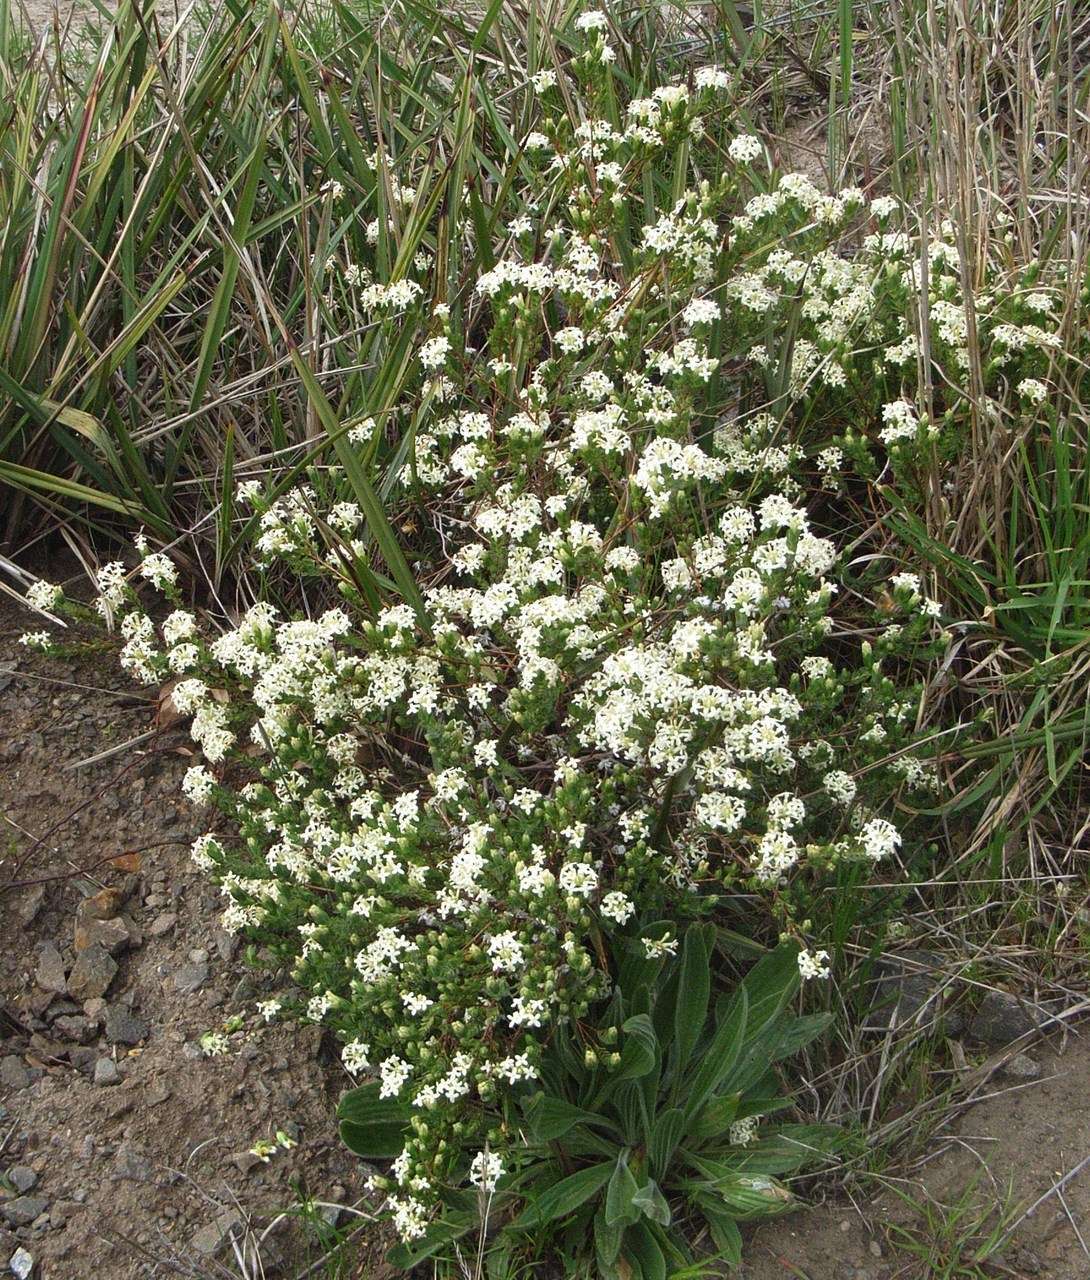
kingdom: Plantae
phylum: Tracheophyta
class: Magnoliopsida
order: Malvales
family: Thymelaeaceae
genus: Pimelea
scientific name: Pimelea glauca
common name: Smooth riceflower
